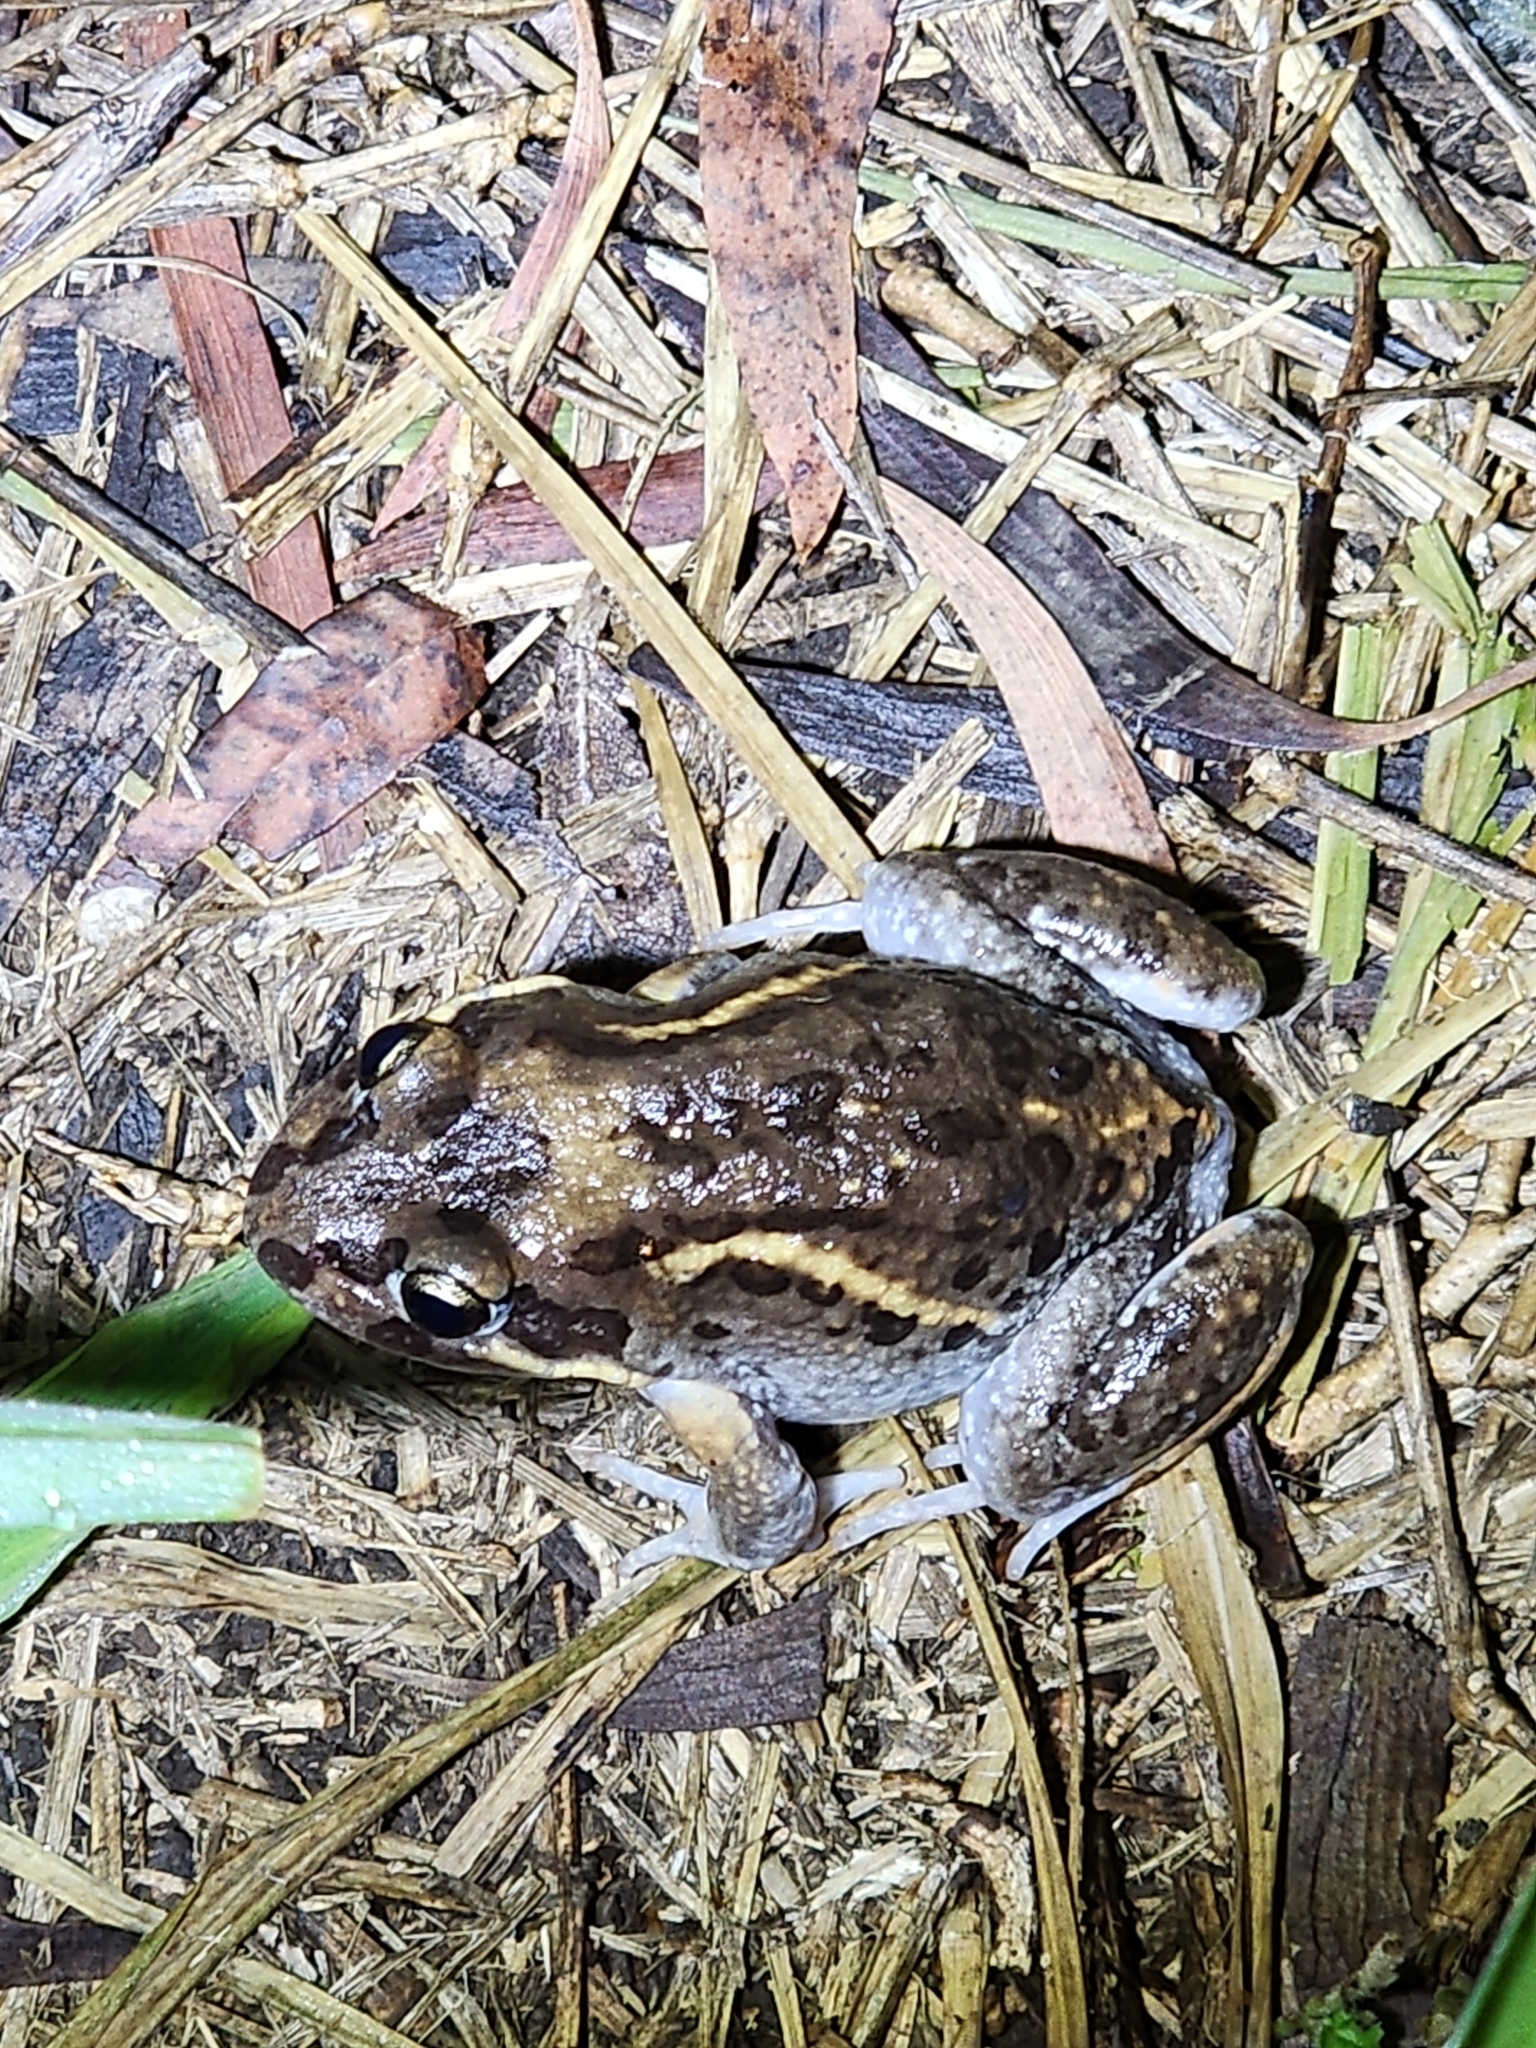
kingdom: Animalia
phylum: Chordata
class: Amphibia
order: Anura
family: Limnodynastidae
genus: Limnodynastes
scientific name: Limnodynastes salmini
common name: Salmon-striped frog
